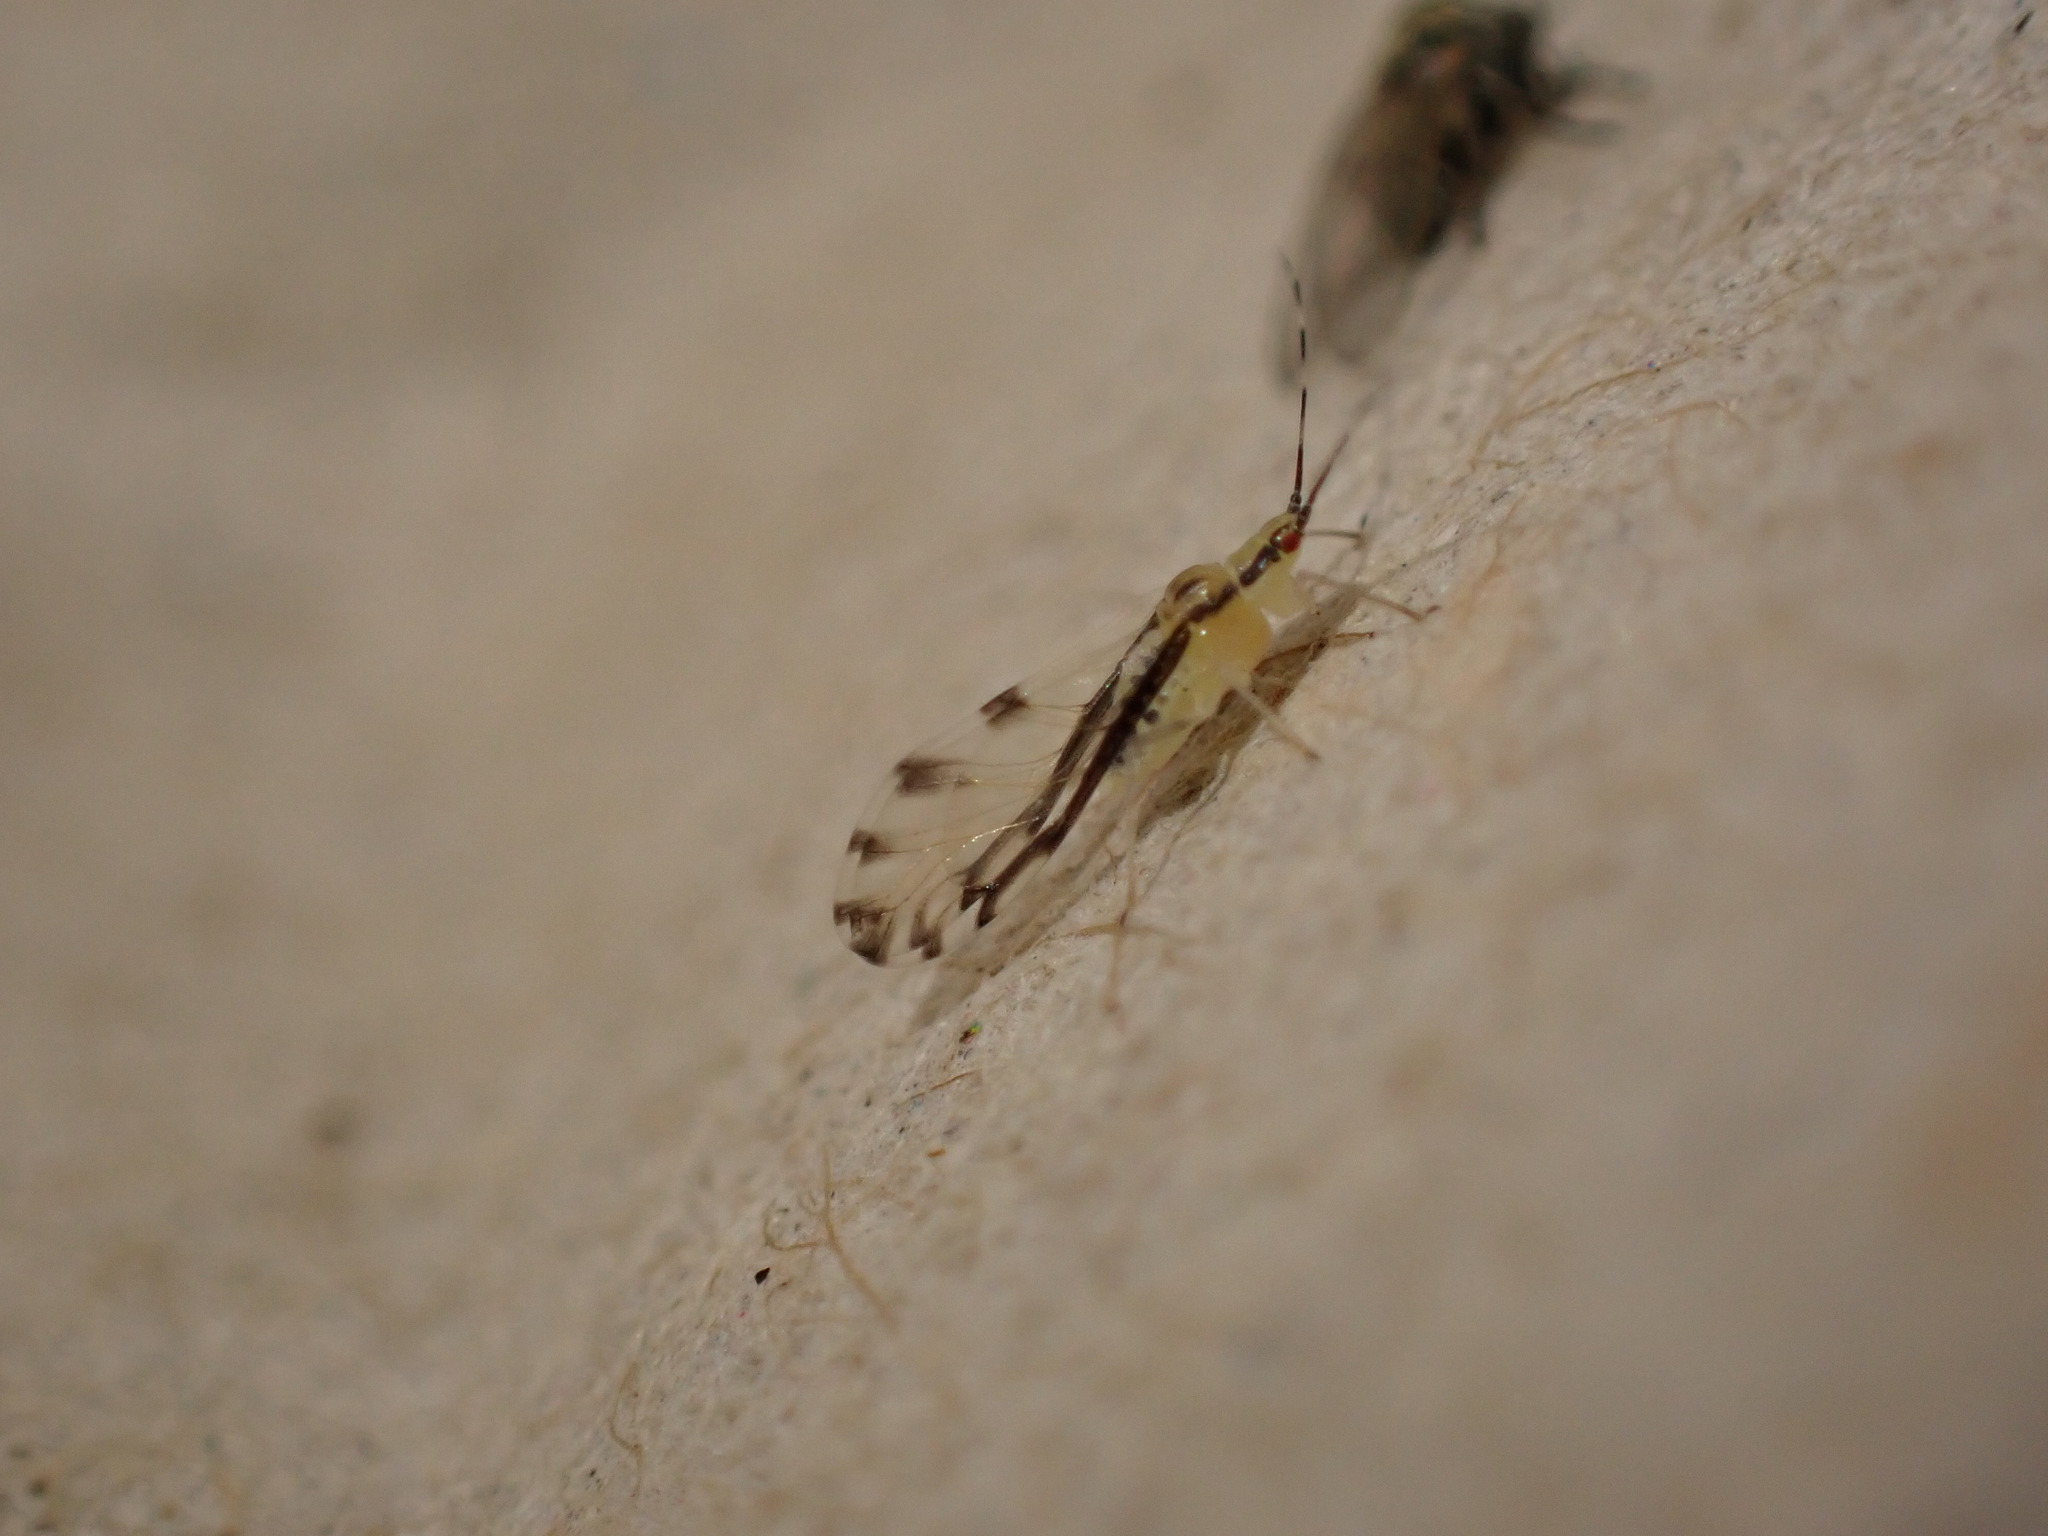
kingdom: Animalia
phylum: Arthropoda
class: Insecta
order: Hemiptera
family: Aphididae
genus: Eucallipterus
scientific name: Eucallipterus tiliae
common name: Aphid
